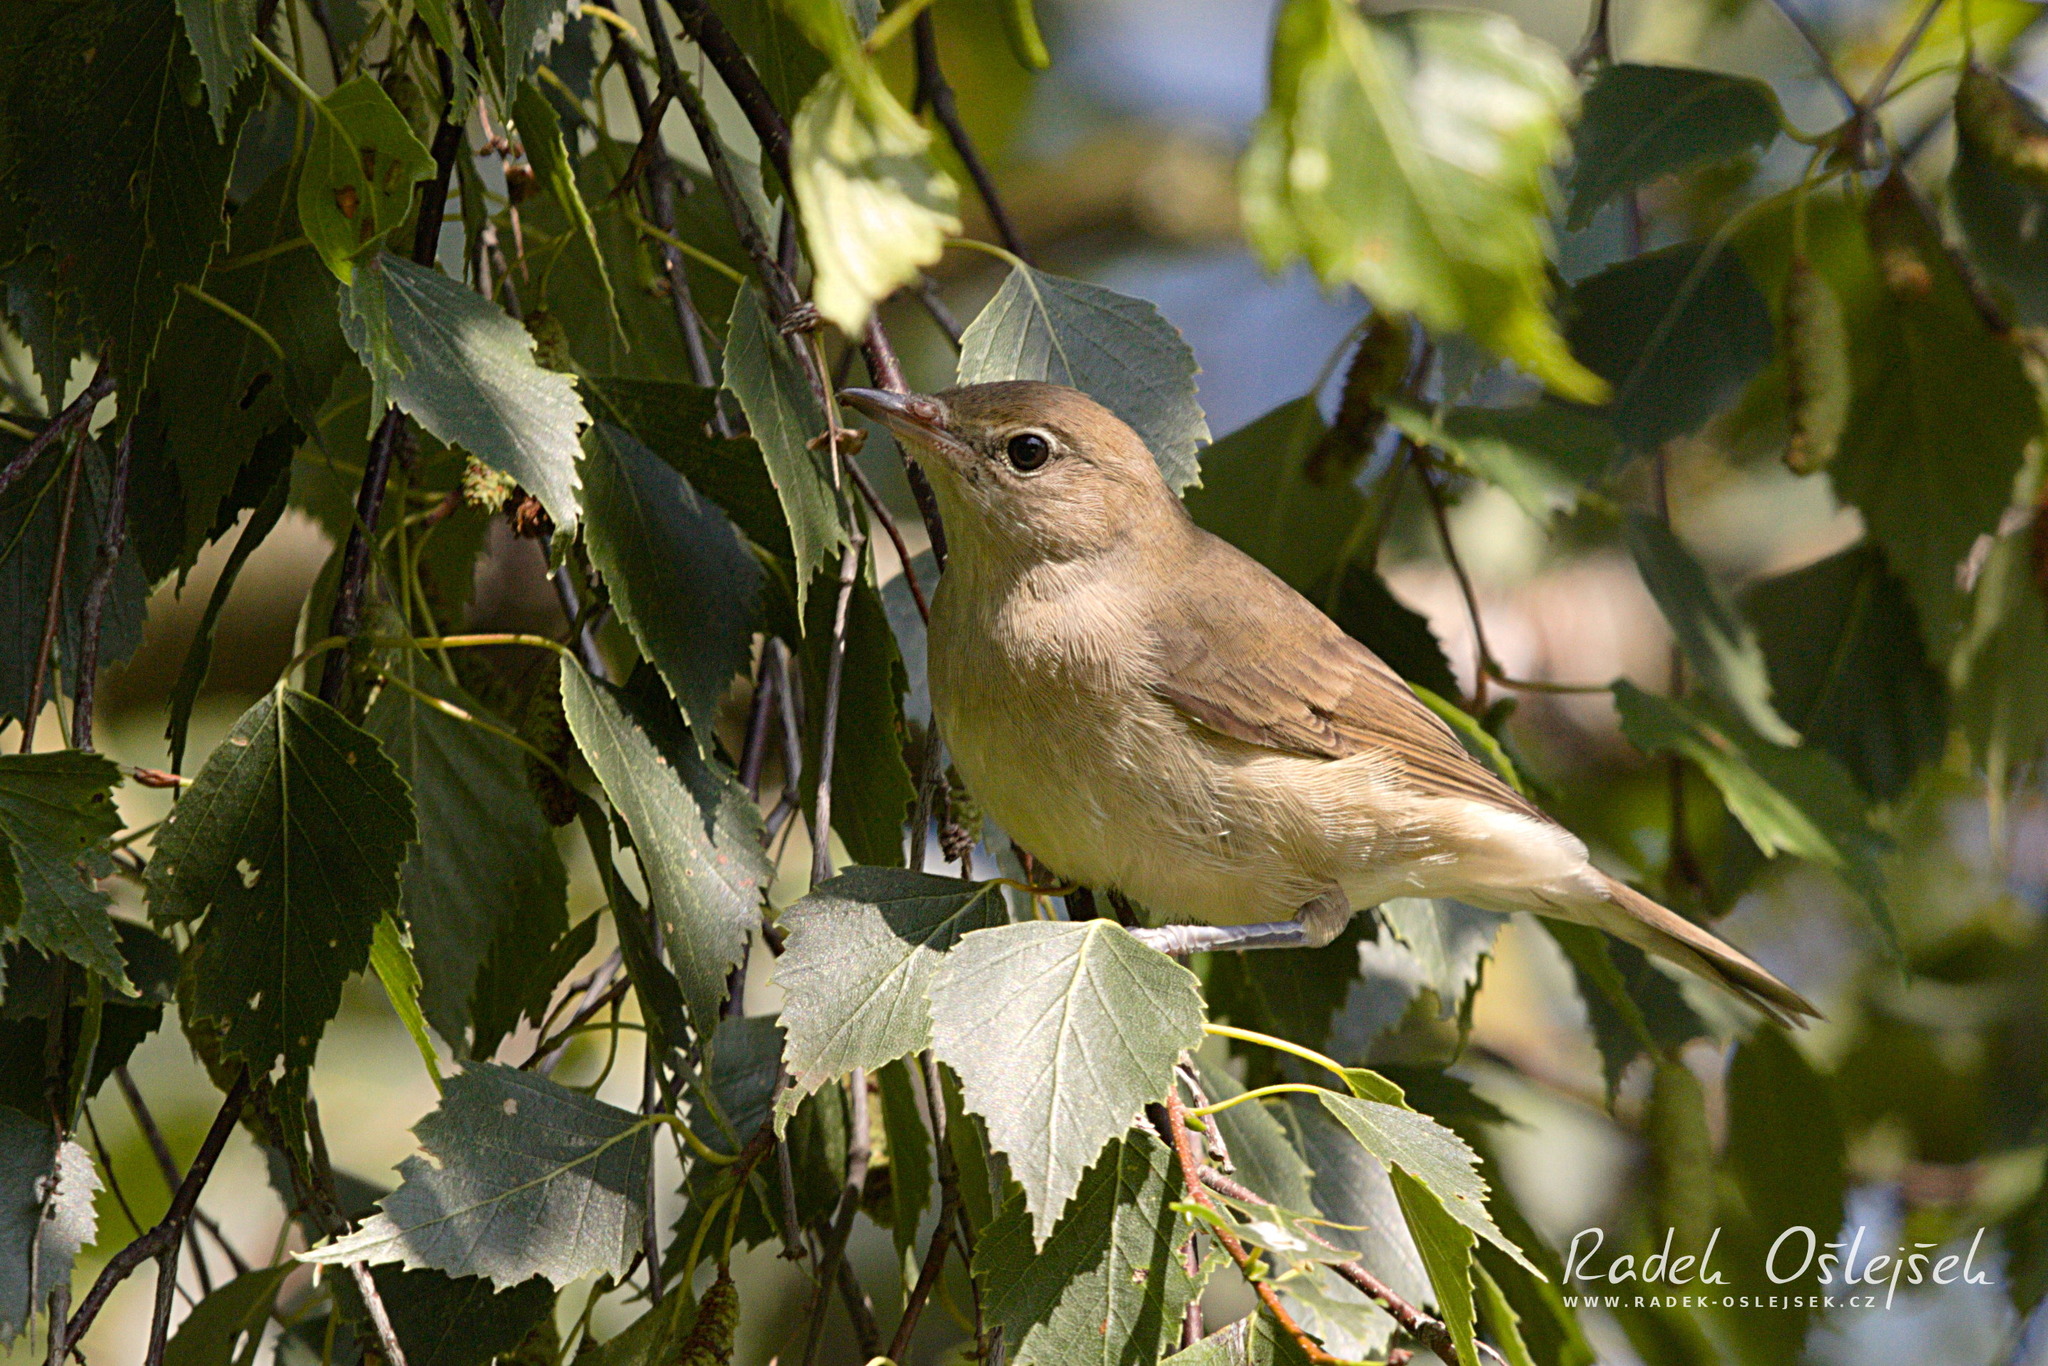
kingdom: Animalia
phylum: Chordata
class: Aves
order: Passeriformes
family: Sylviidae
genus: Sylvia
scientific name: Sylvia borin
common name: Garden warbler
